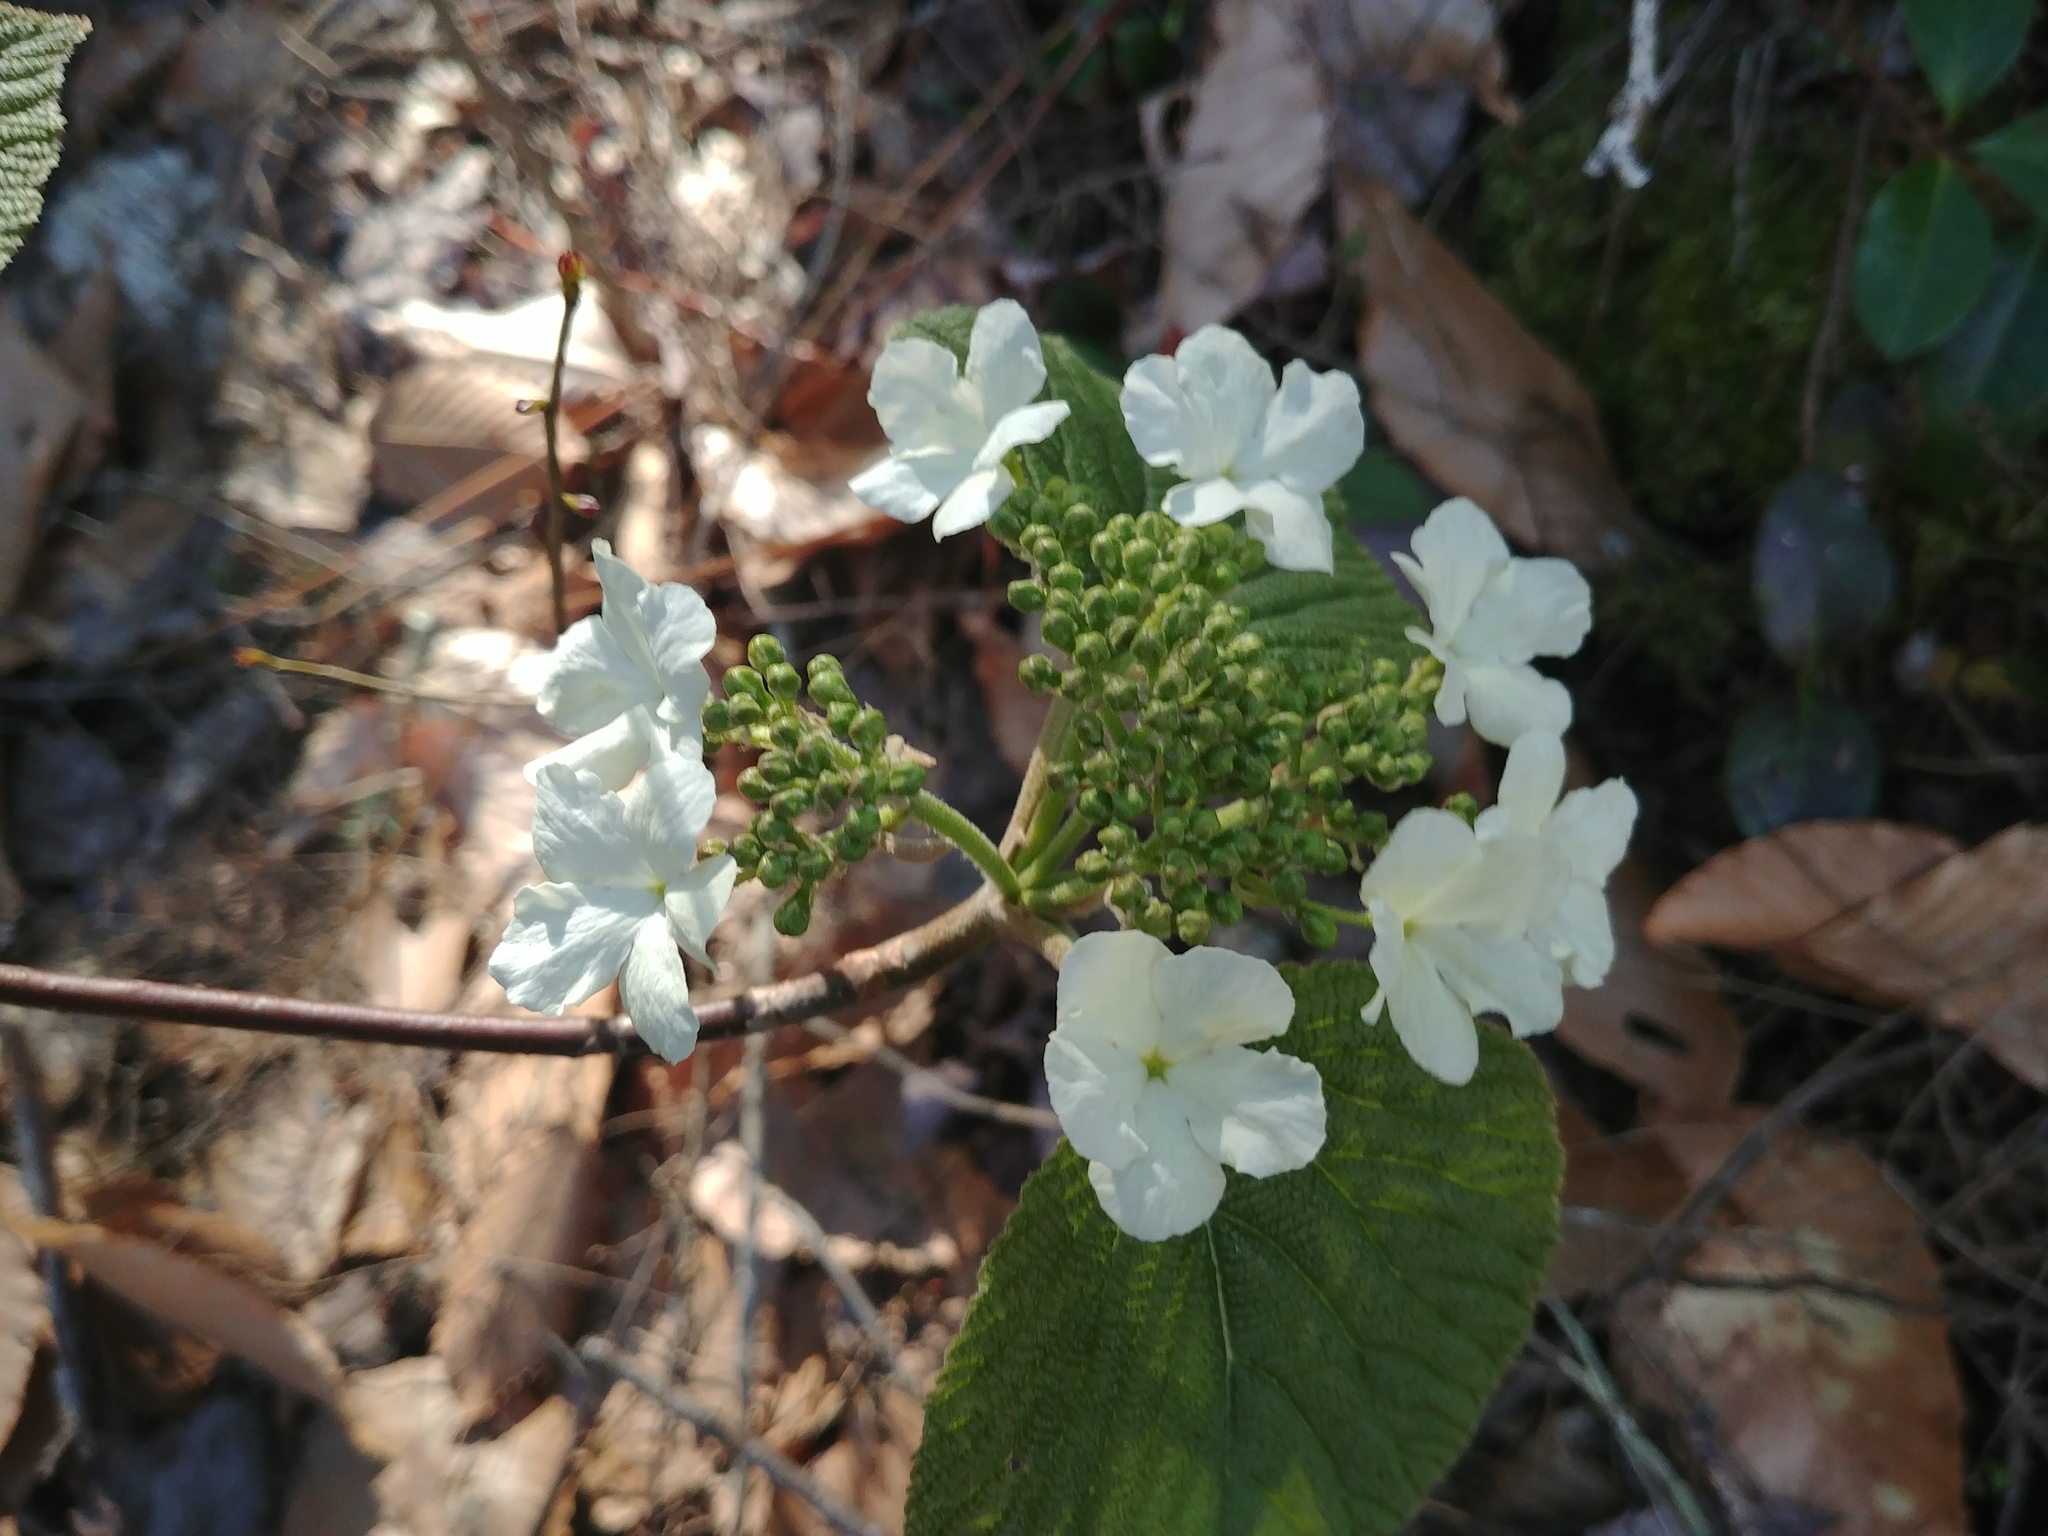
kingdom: Plantae
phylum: Tracheophyta
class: Magnoliopsida
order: Dipsacales
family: Viburnaceae
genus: Viburnum
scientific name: Viburnum lantanoides
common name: Hobblebush
